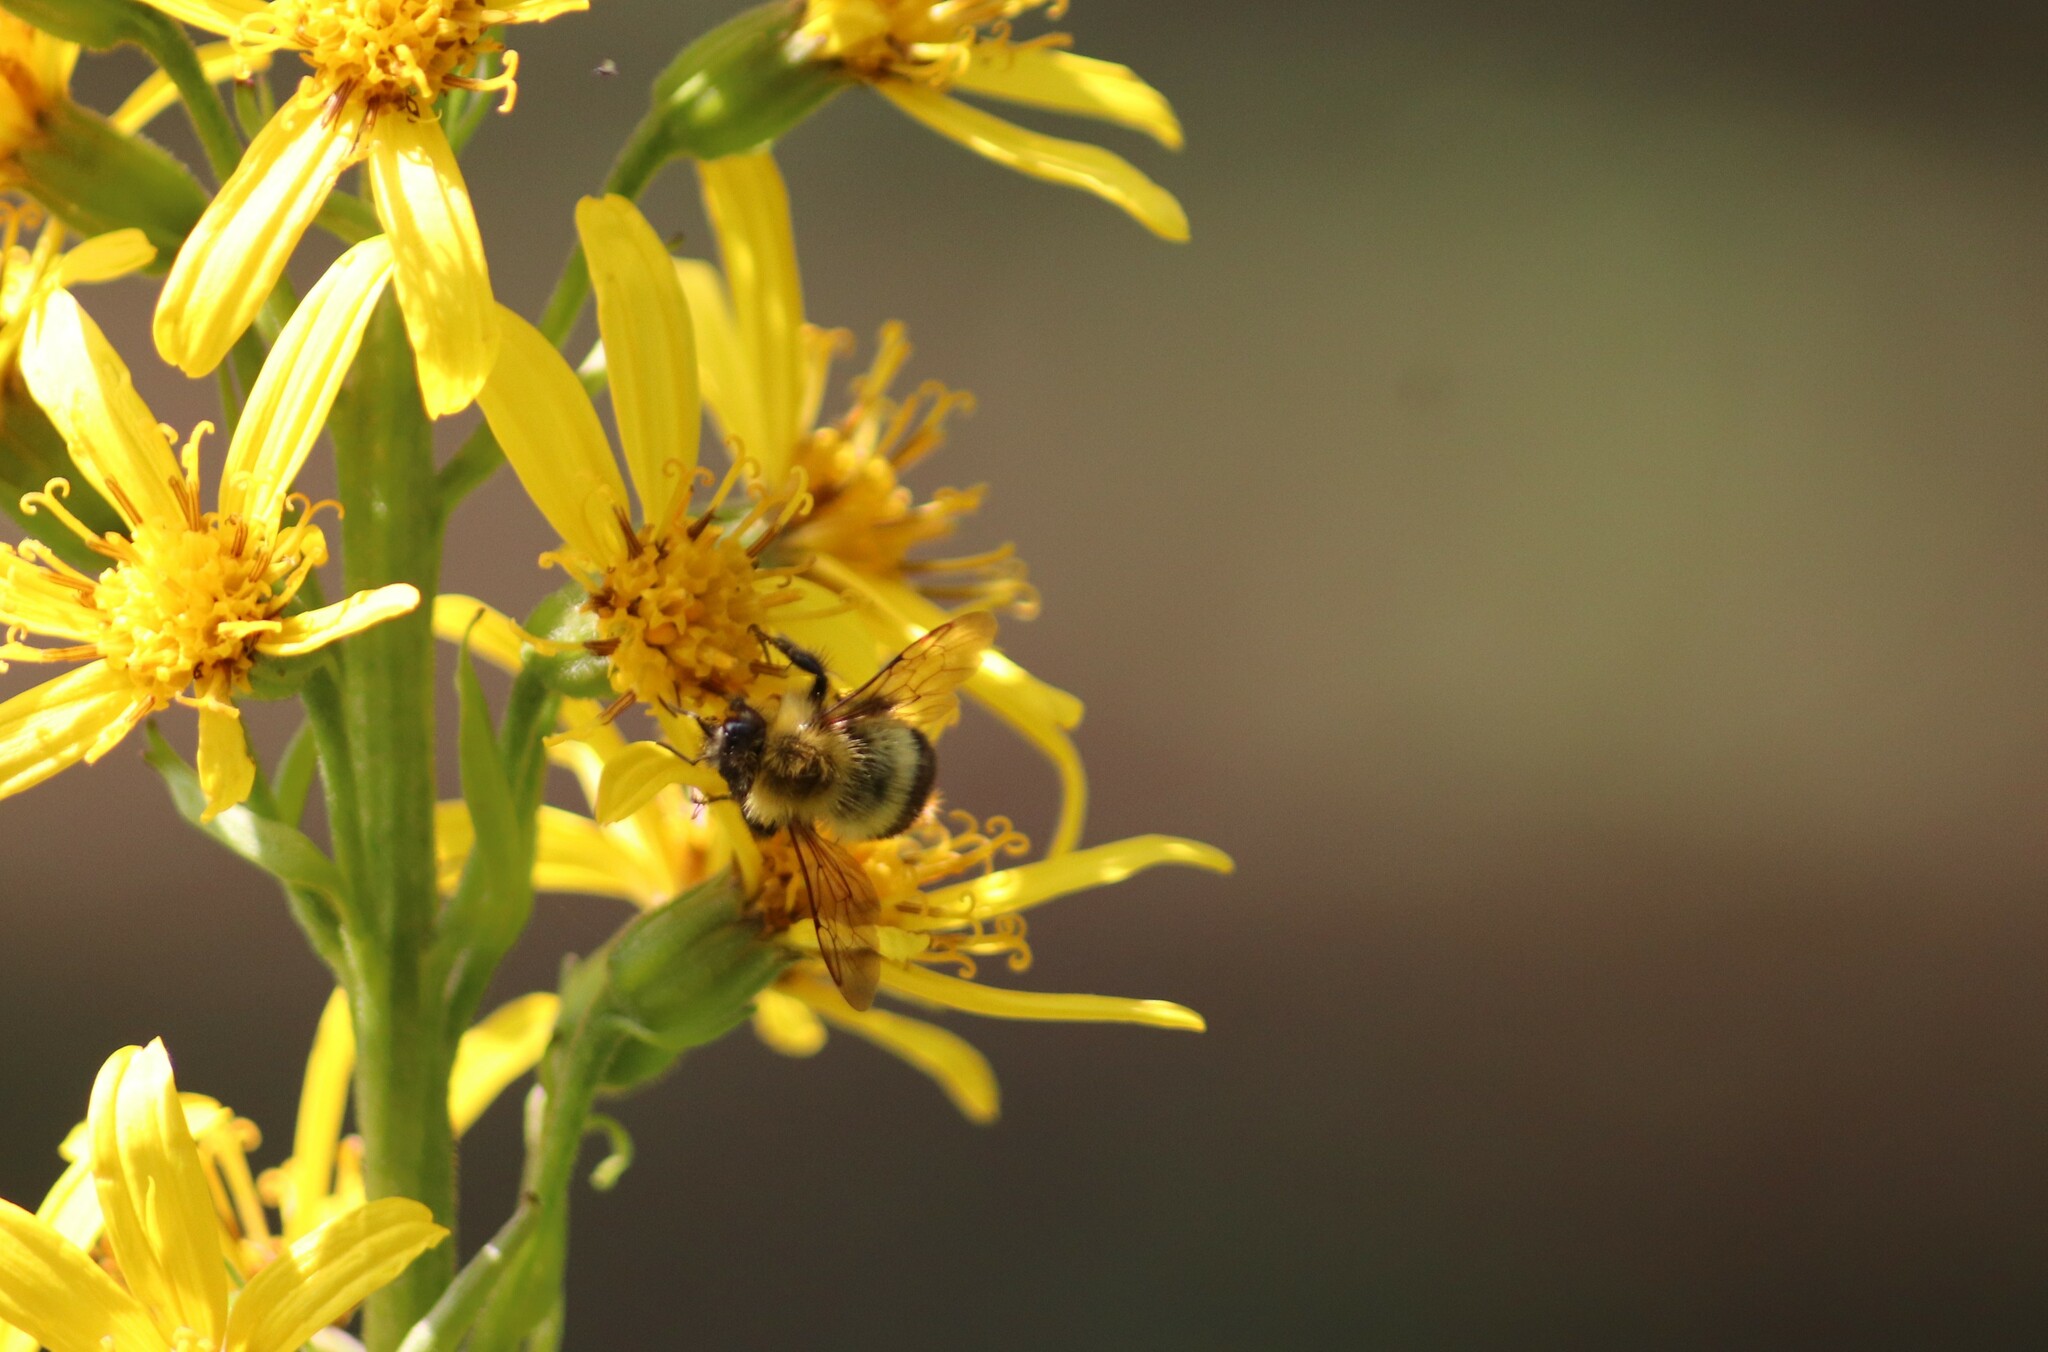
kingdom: Animalia
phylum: Arthropoda
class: Insecta
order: Hymenoptera
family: Apidae
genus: Bombus
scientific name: Bombus perplexus
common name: Confusing bumble bee
